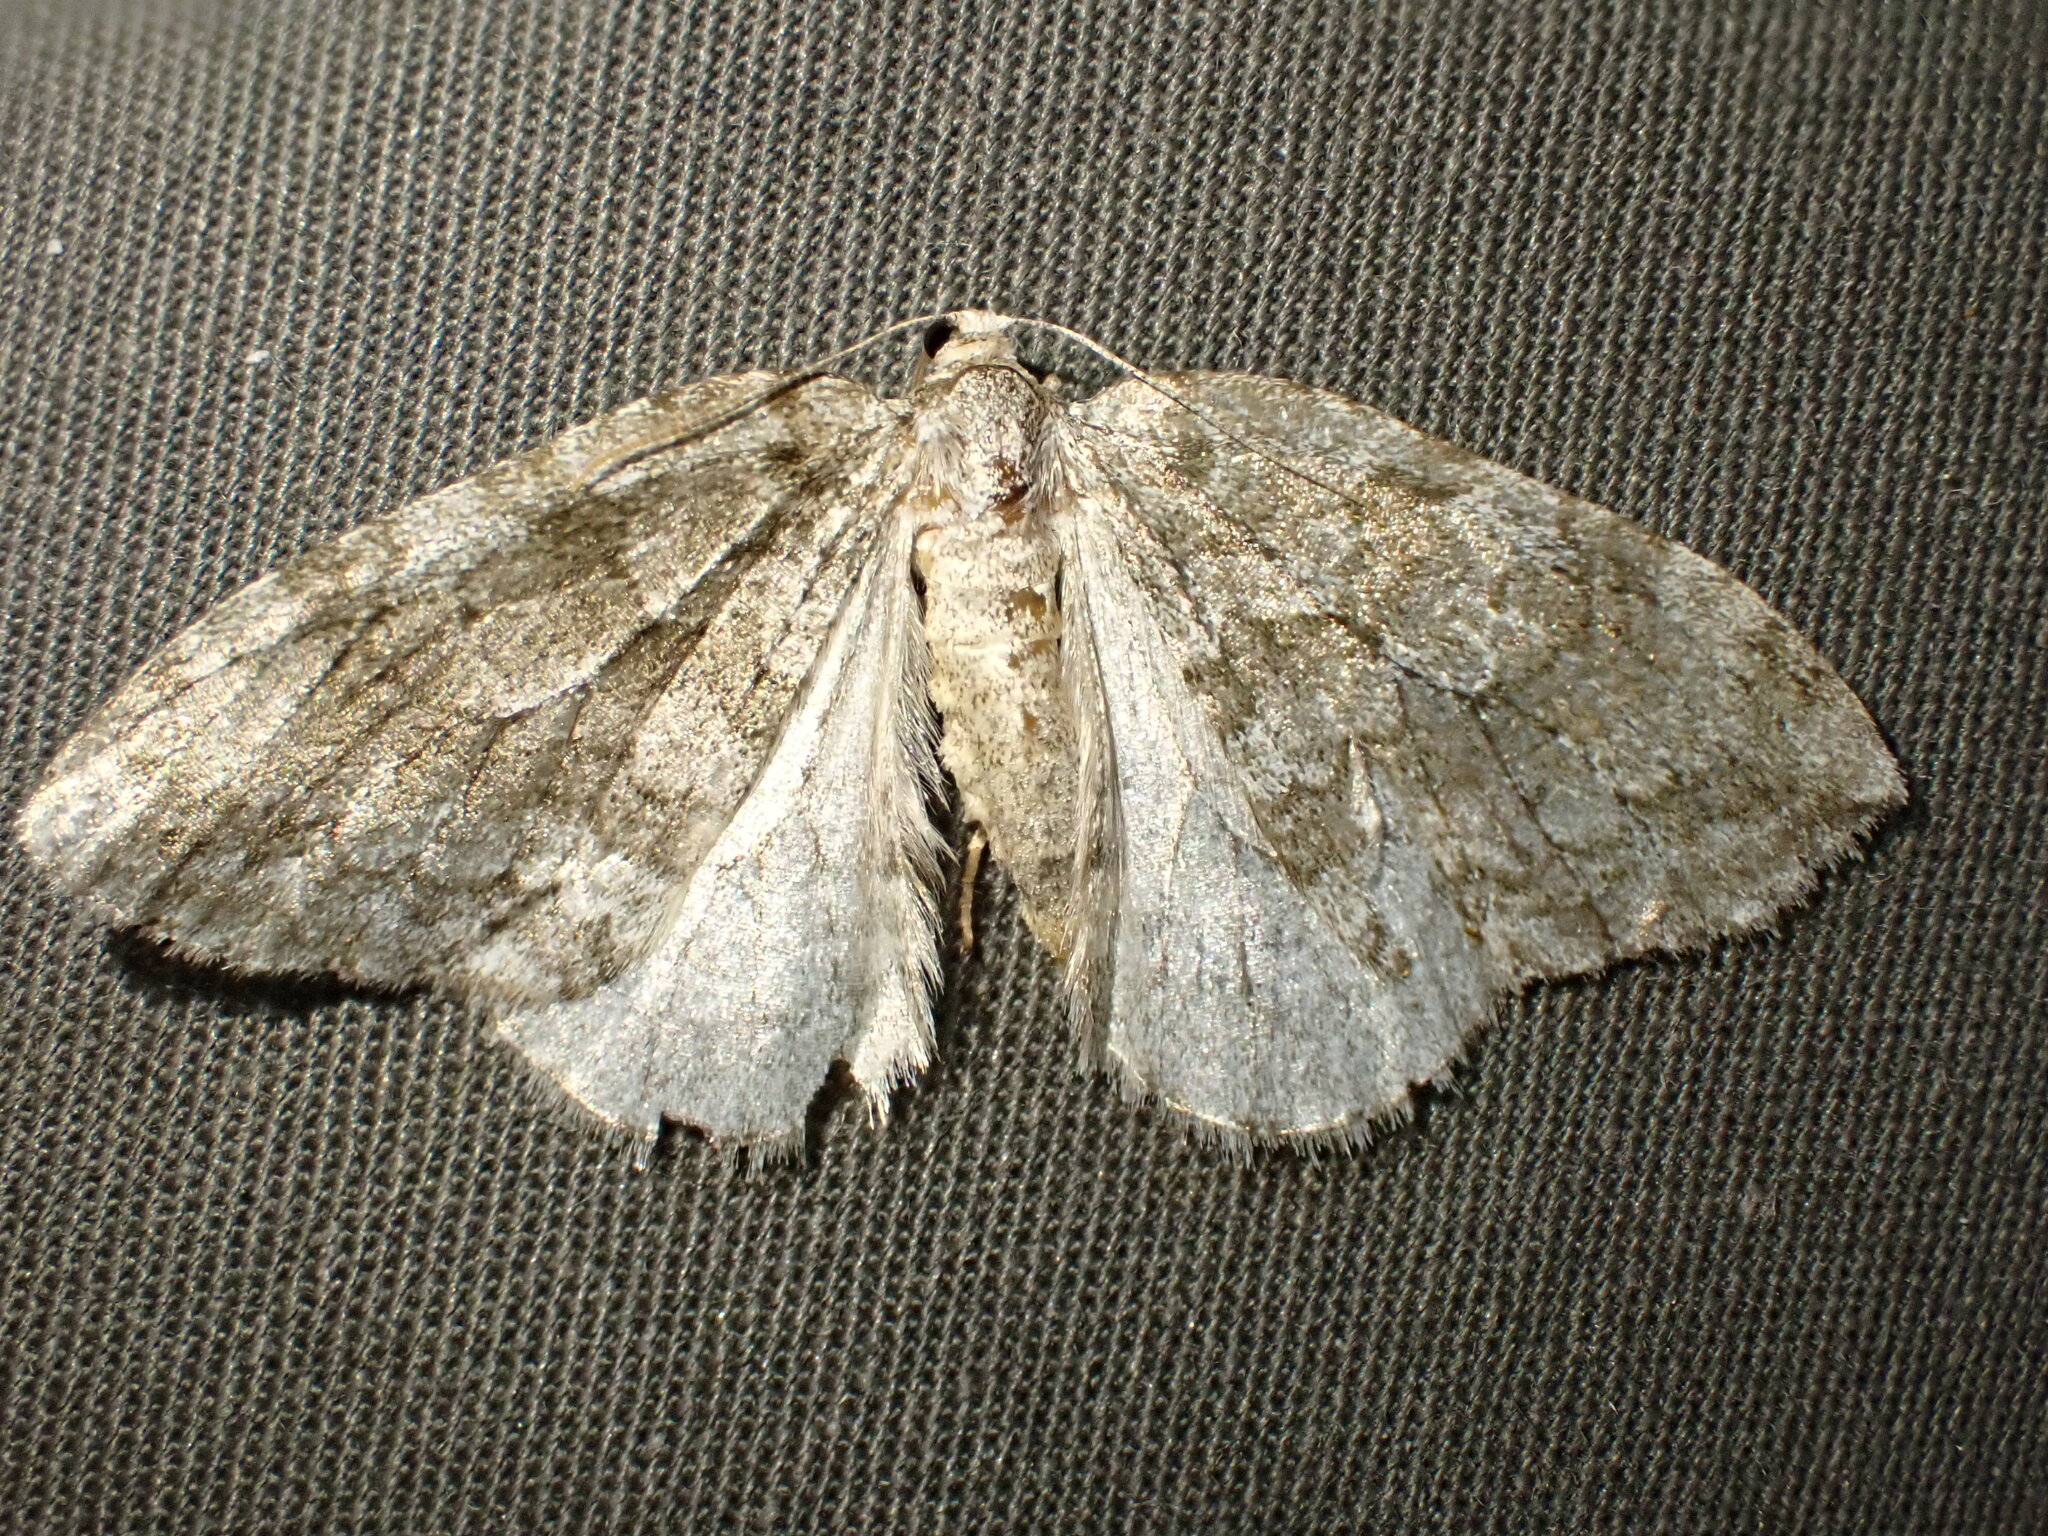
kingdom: Animalia
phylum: Arthropoda
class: Insecta
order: Lepidoptera
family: Geometridae
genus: Epirrita
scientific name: Epirrita autumnata
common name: Autumnal moth
